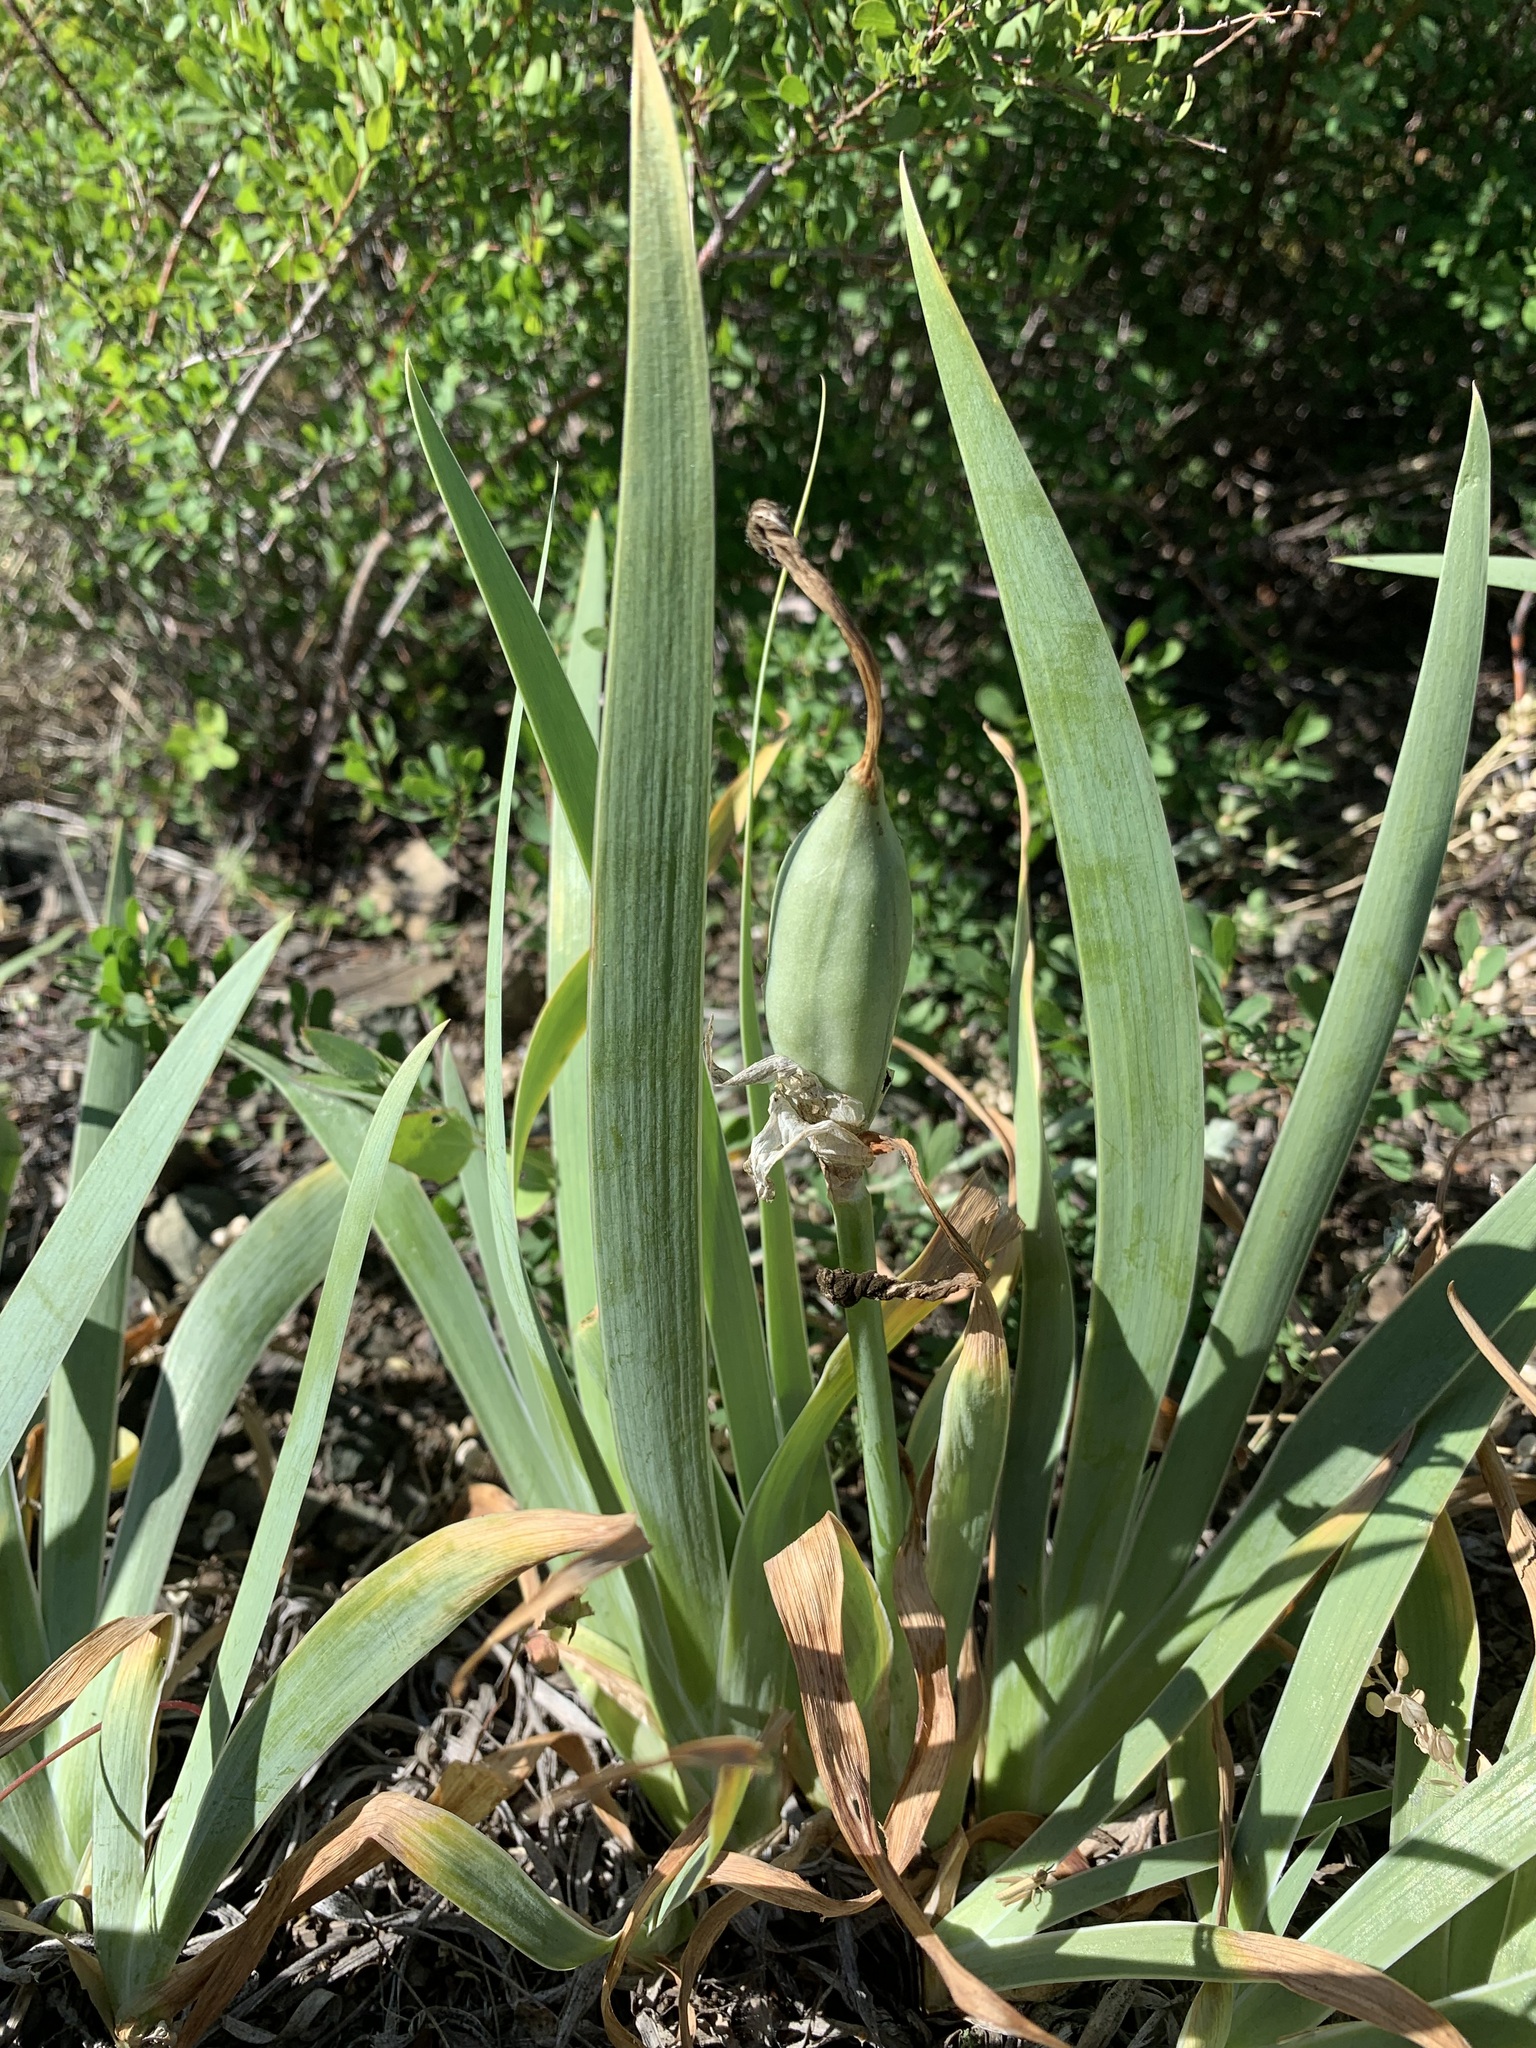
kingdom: Plantae
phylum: Tracheophyta
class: Liliopsida
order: Asparagales
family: Iridaceae
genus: Iris
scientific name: Iris glaucescens
